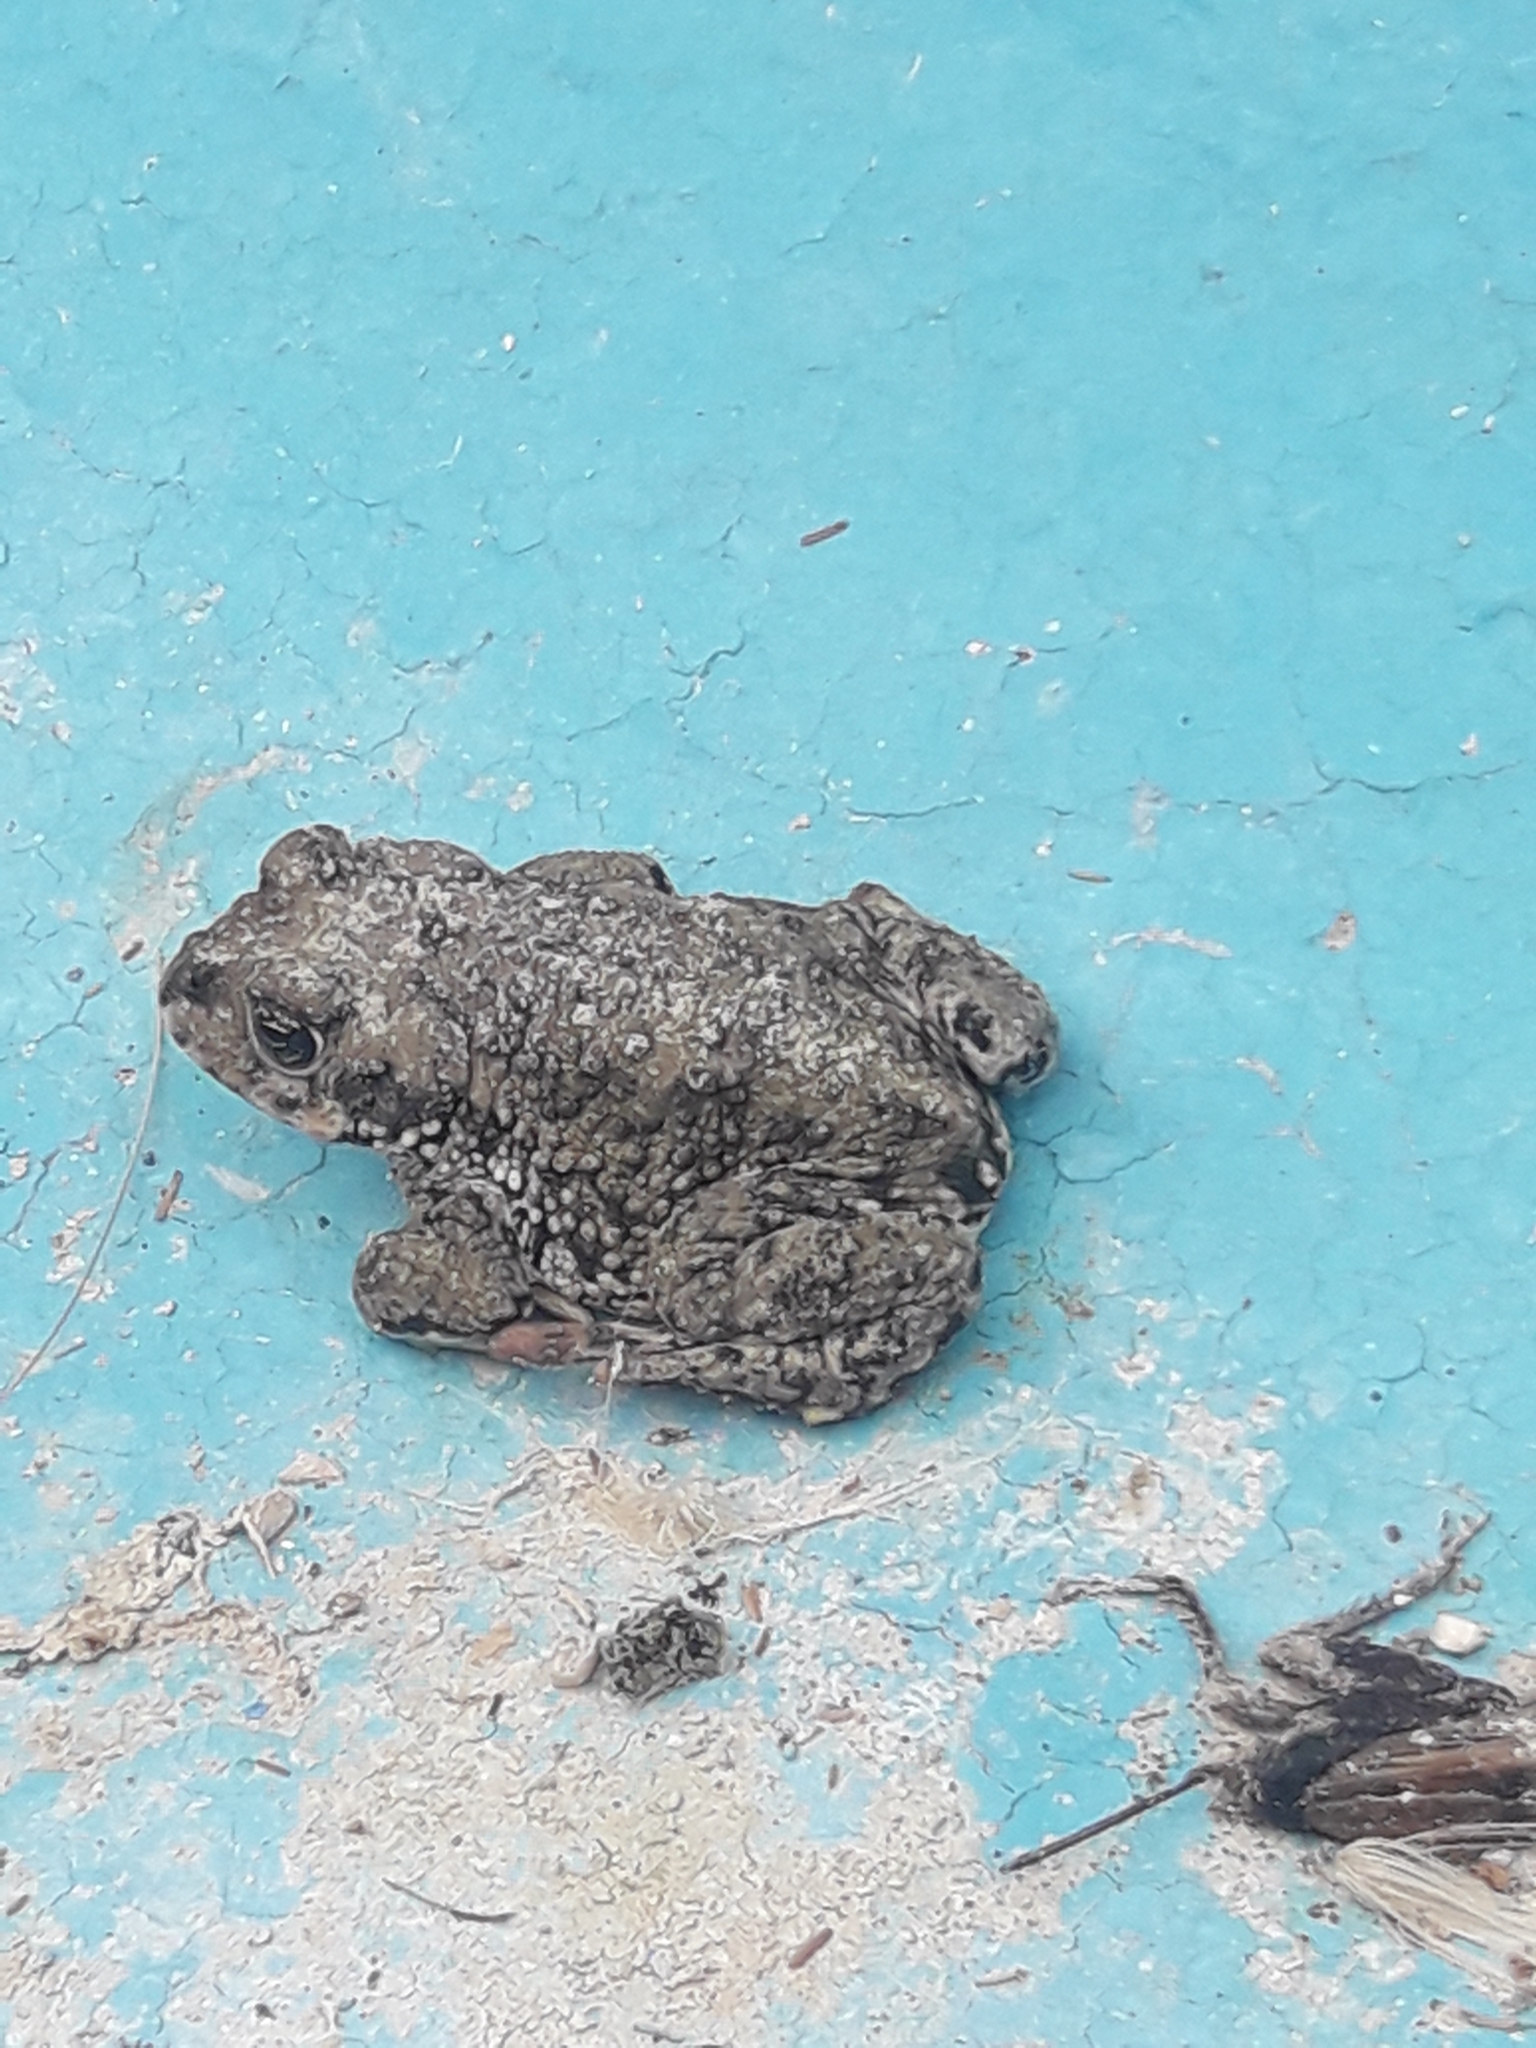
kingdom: Animalia
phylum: Chordata
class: Amphibia
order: Anura
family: Bufonidae
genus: Rhinella
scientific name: Rhinella arunco
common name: Concepcion toad
